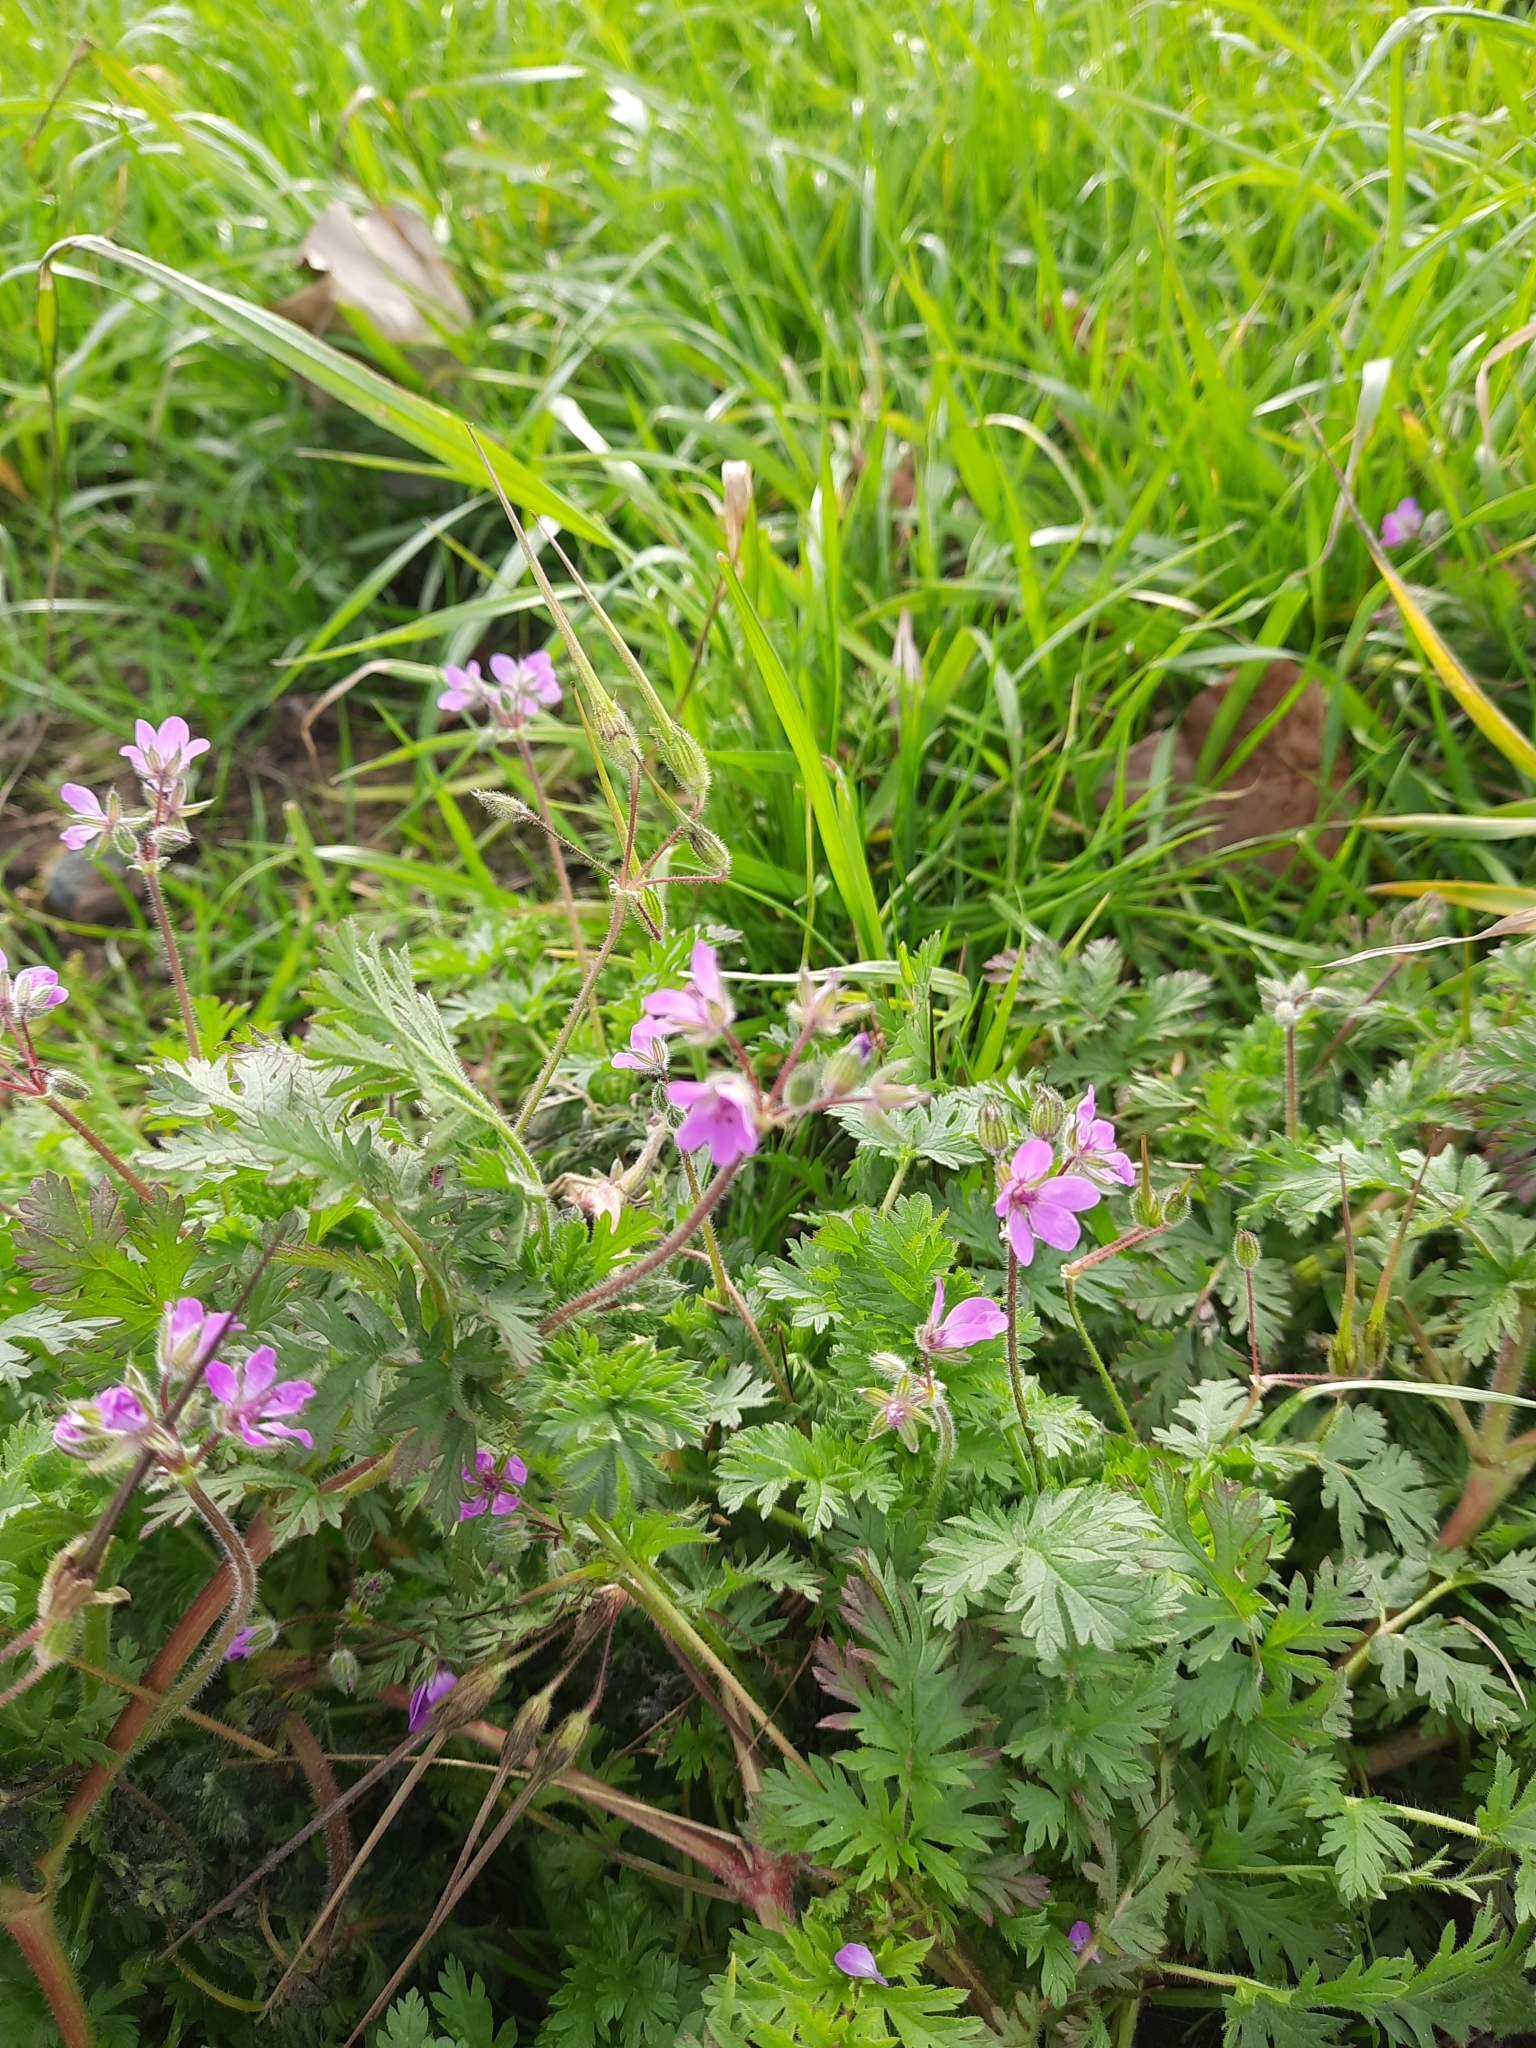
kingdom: Plantae
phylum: Tracheophyta
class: Magnoliopsida
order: Geraniales
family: Geraniaceae
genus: Erodium
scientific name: Erodium cicutarium
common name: Common stork's-bill
